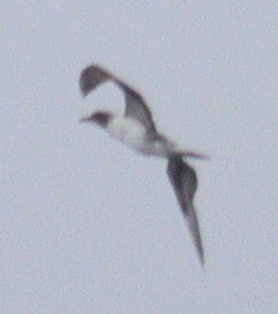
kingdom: Animalia
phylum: Chordata
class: Aves
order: Suliformes
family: Sulidae
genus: Morus
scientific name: Morus bassanus
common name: Northern gannet
